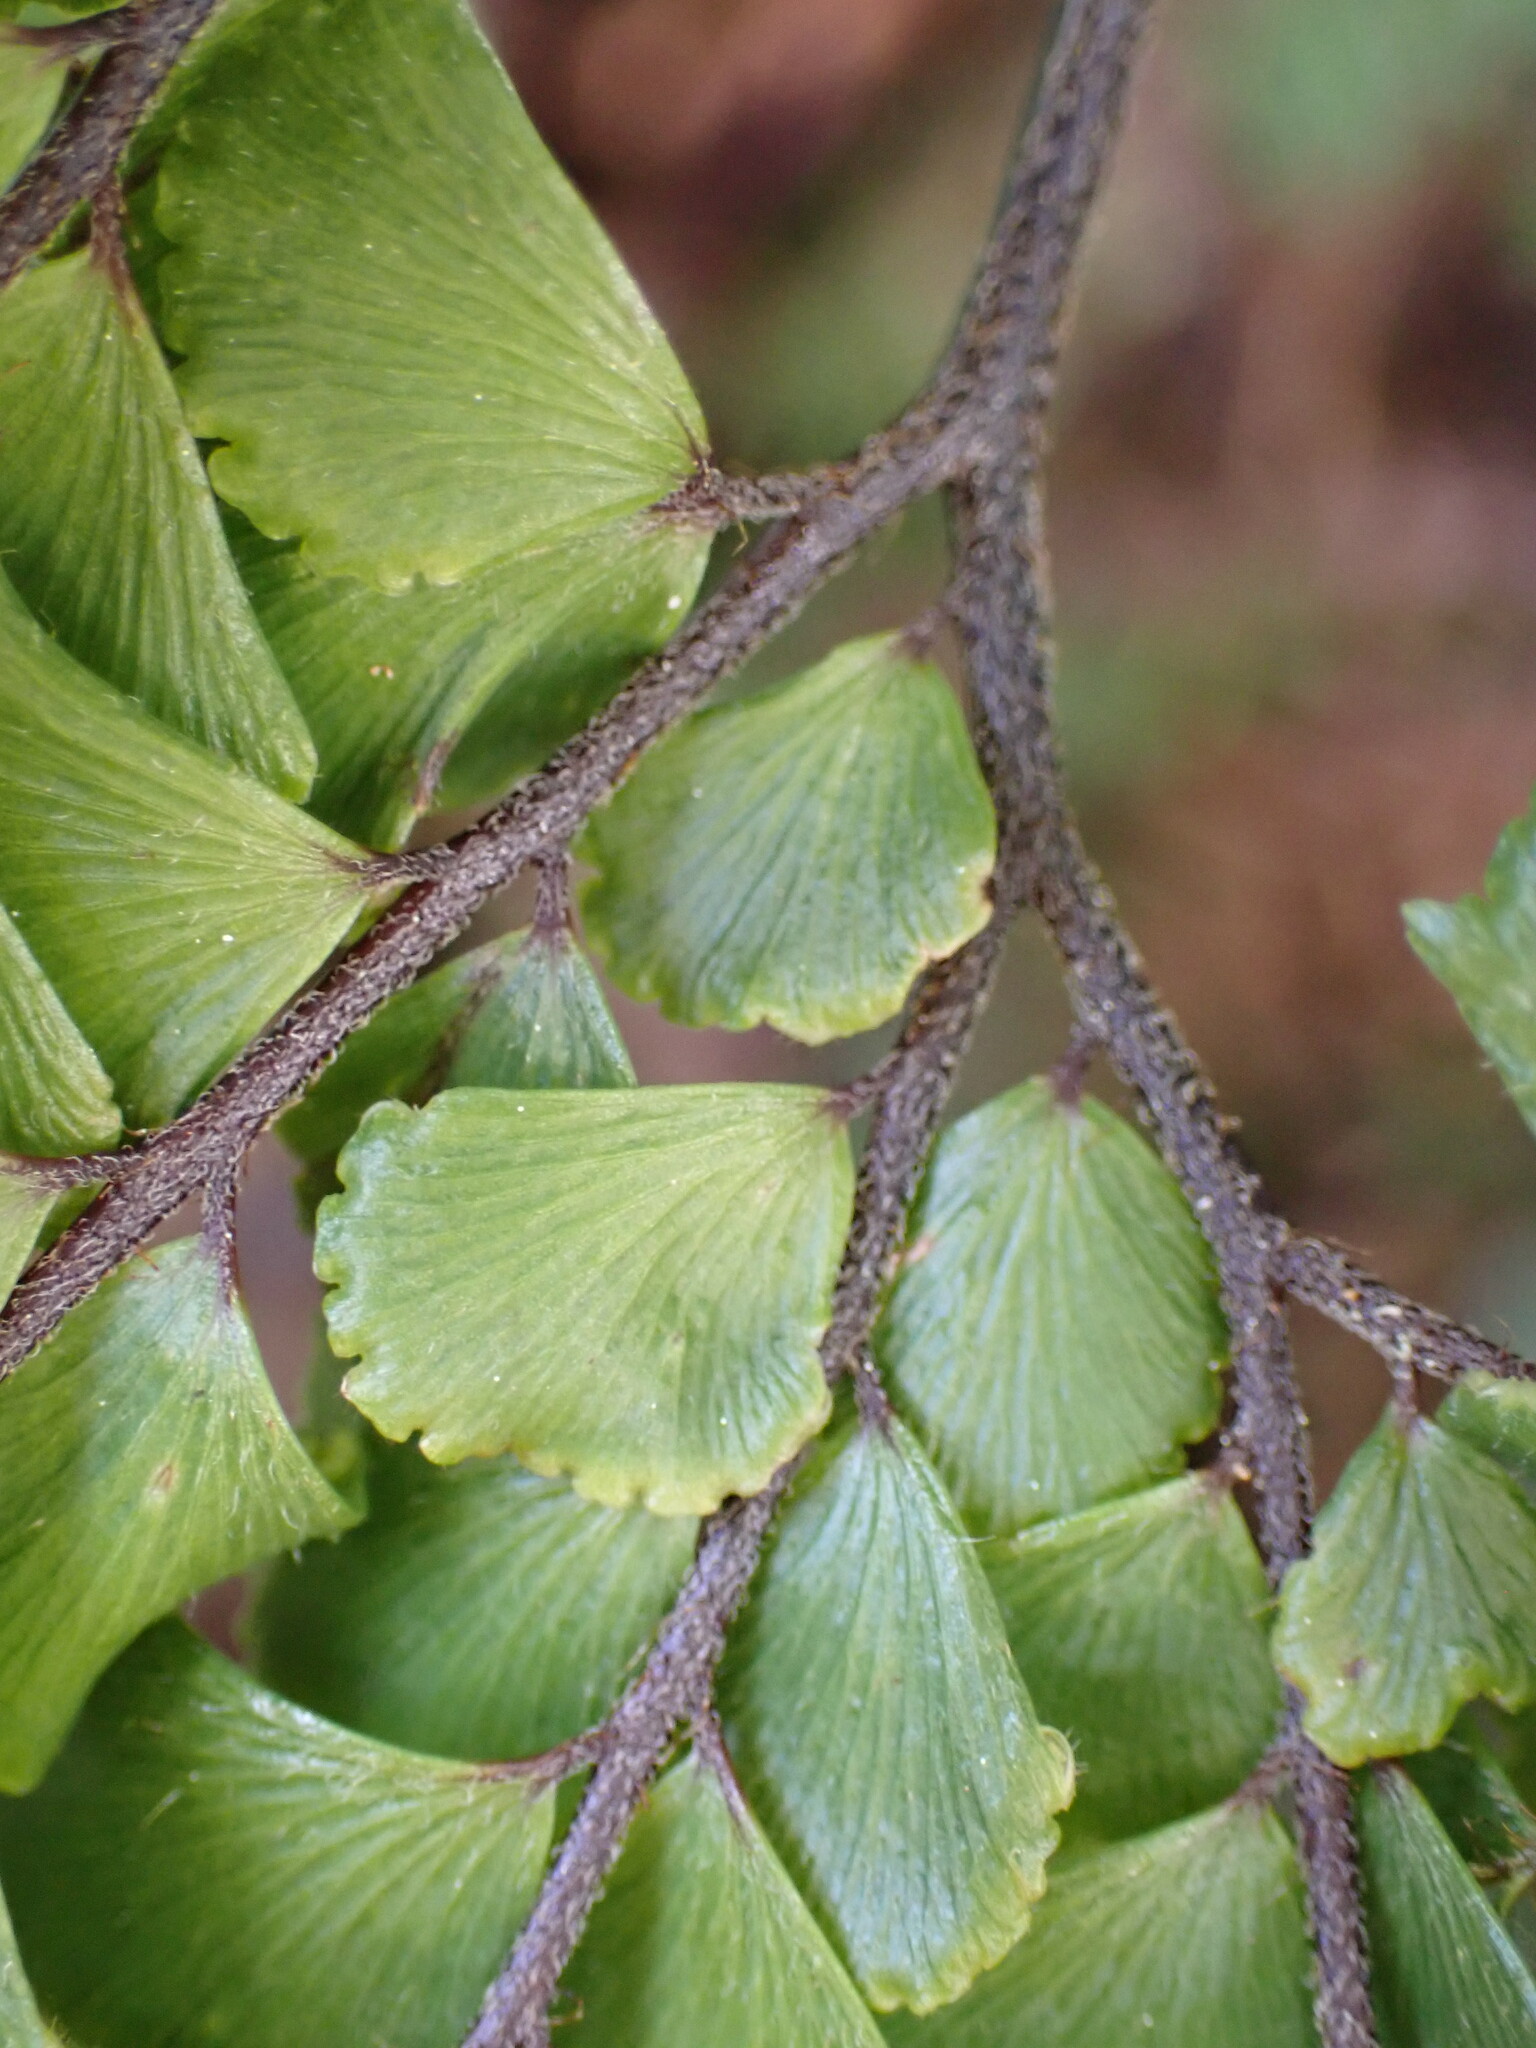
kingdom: Plantae
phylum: Tracheophyta
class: Polypodiopsida
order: Polypodiales
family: Pteridaceae
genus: Adiantum
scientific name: Adiantum hispidulum
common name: Rough maidenhair
